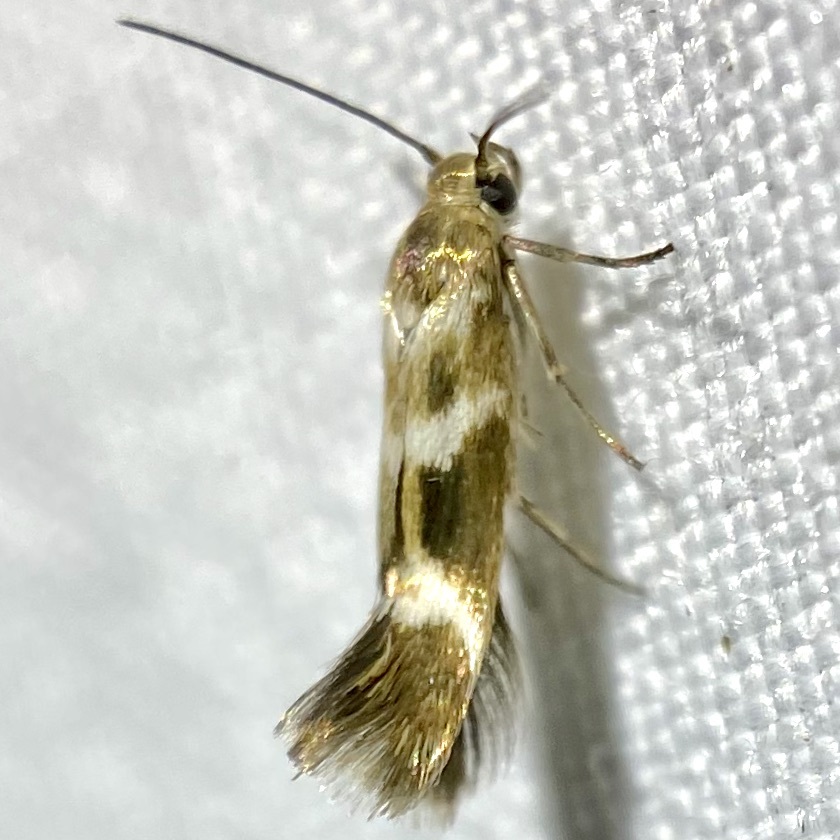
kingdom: Animalia
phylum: Arthropoda
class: Insecta
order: Lepidoptera
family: Scythrididae
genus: Scythris
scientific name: Scythris trivinctella
